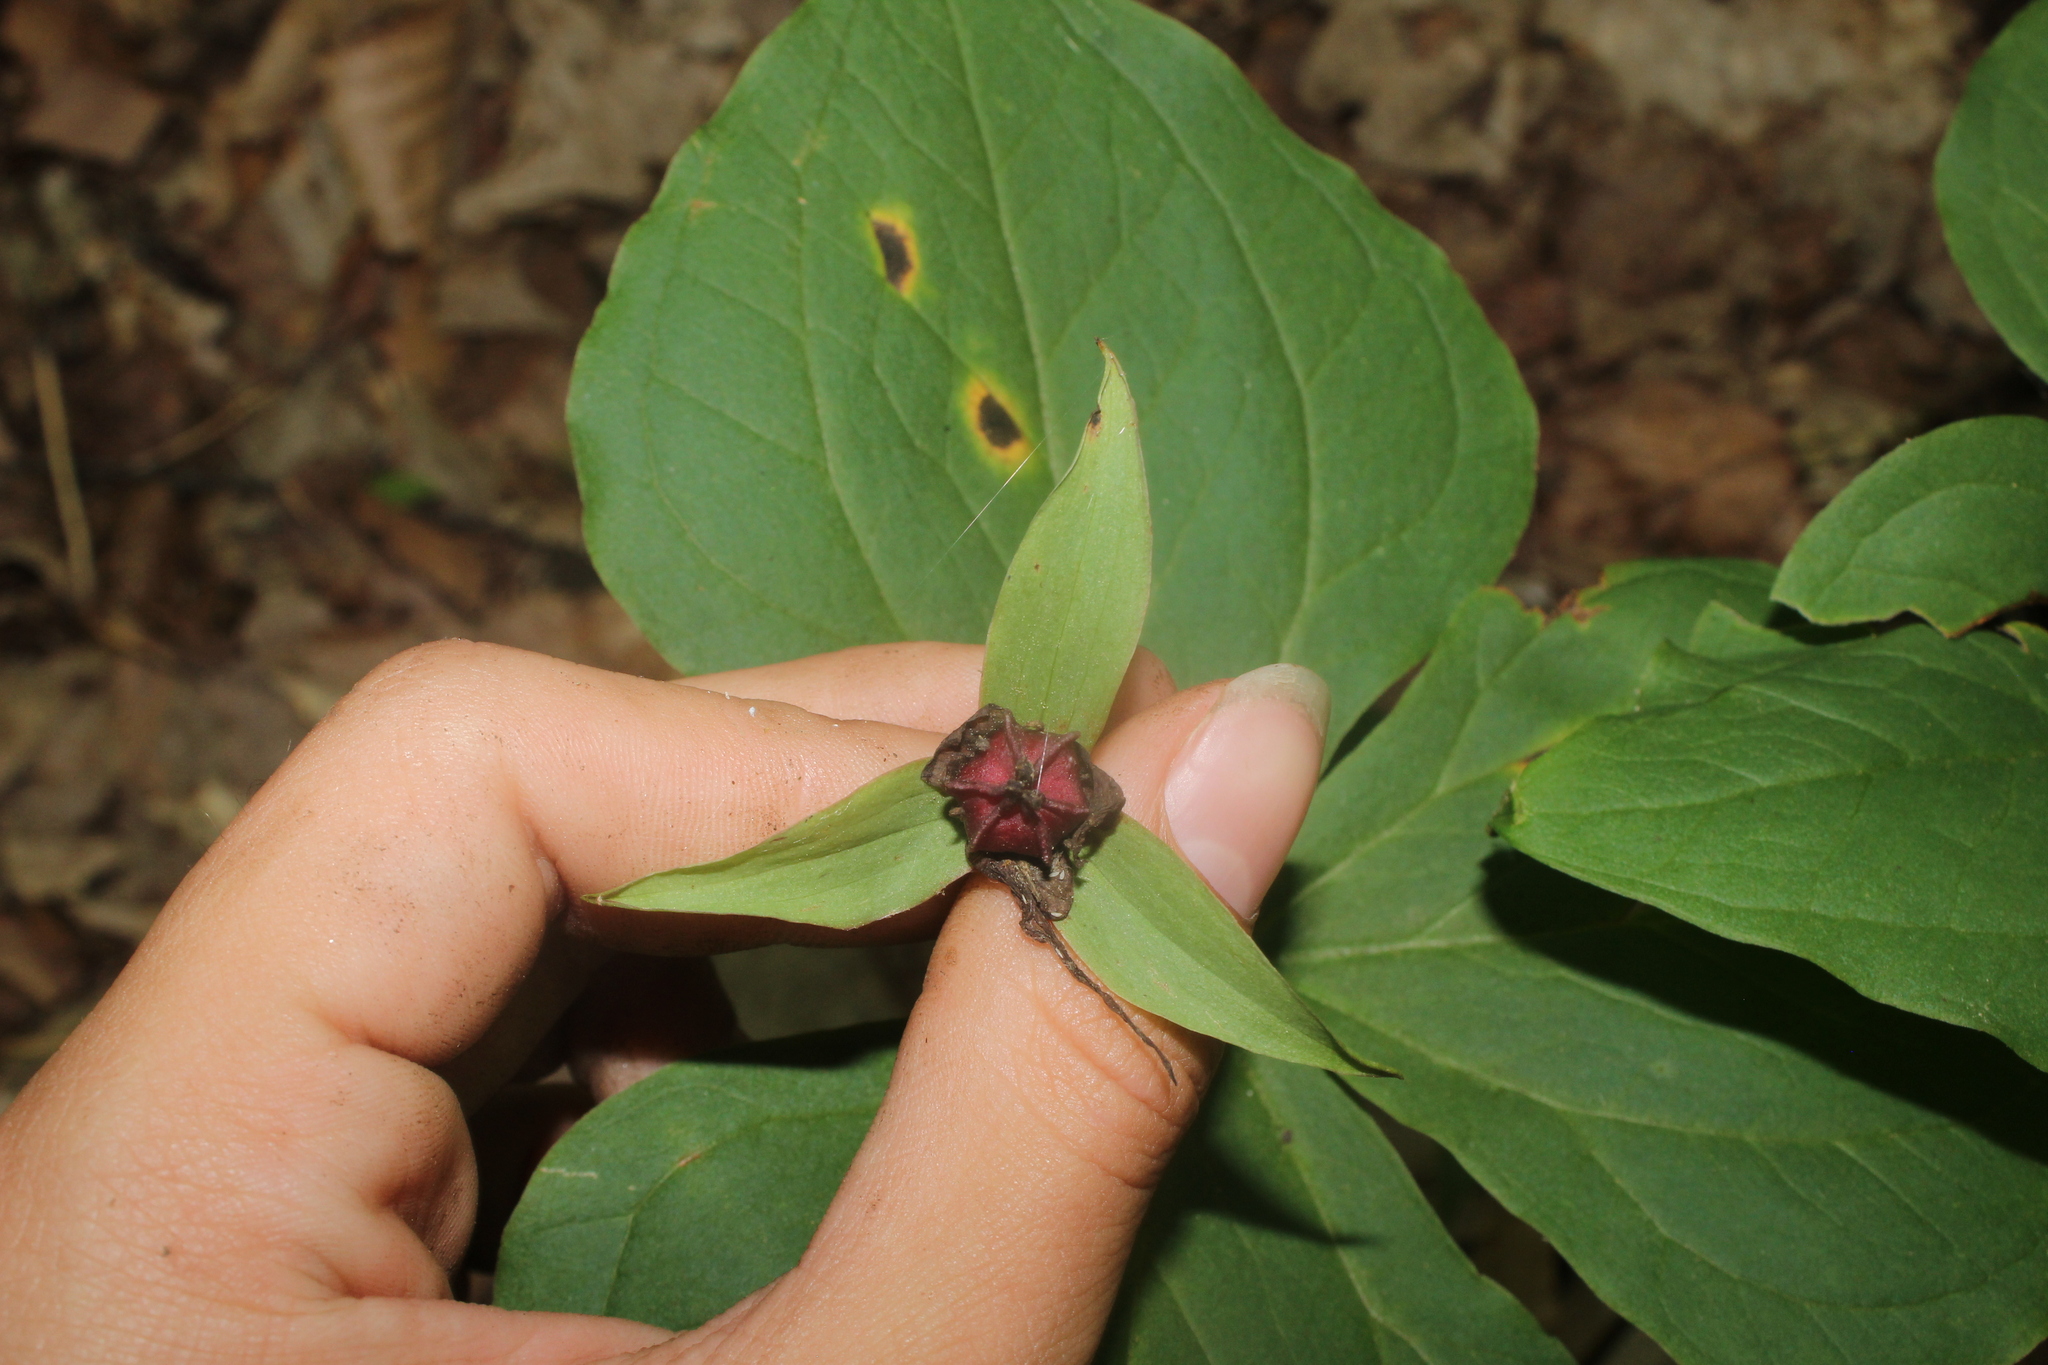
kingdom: Plantae
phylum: Tracheophyta
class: Liliopsida
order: Liliales
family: Melanthiaceae
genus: Trillium
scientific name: Trillium erectum
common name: Purple trillium
